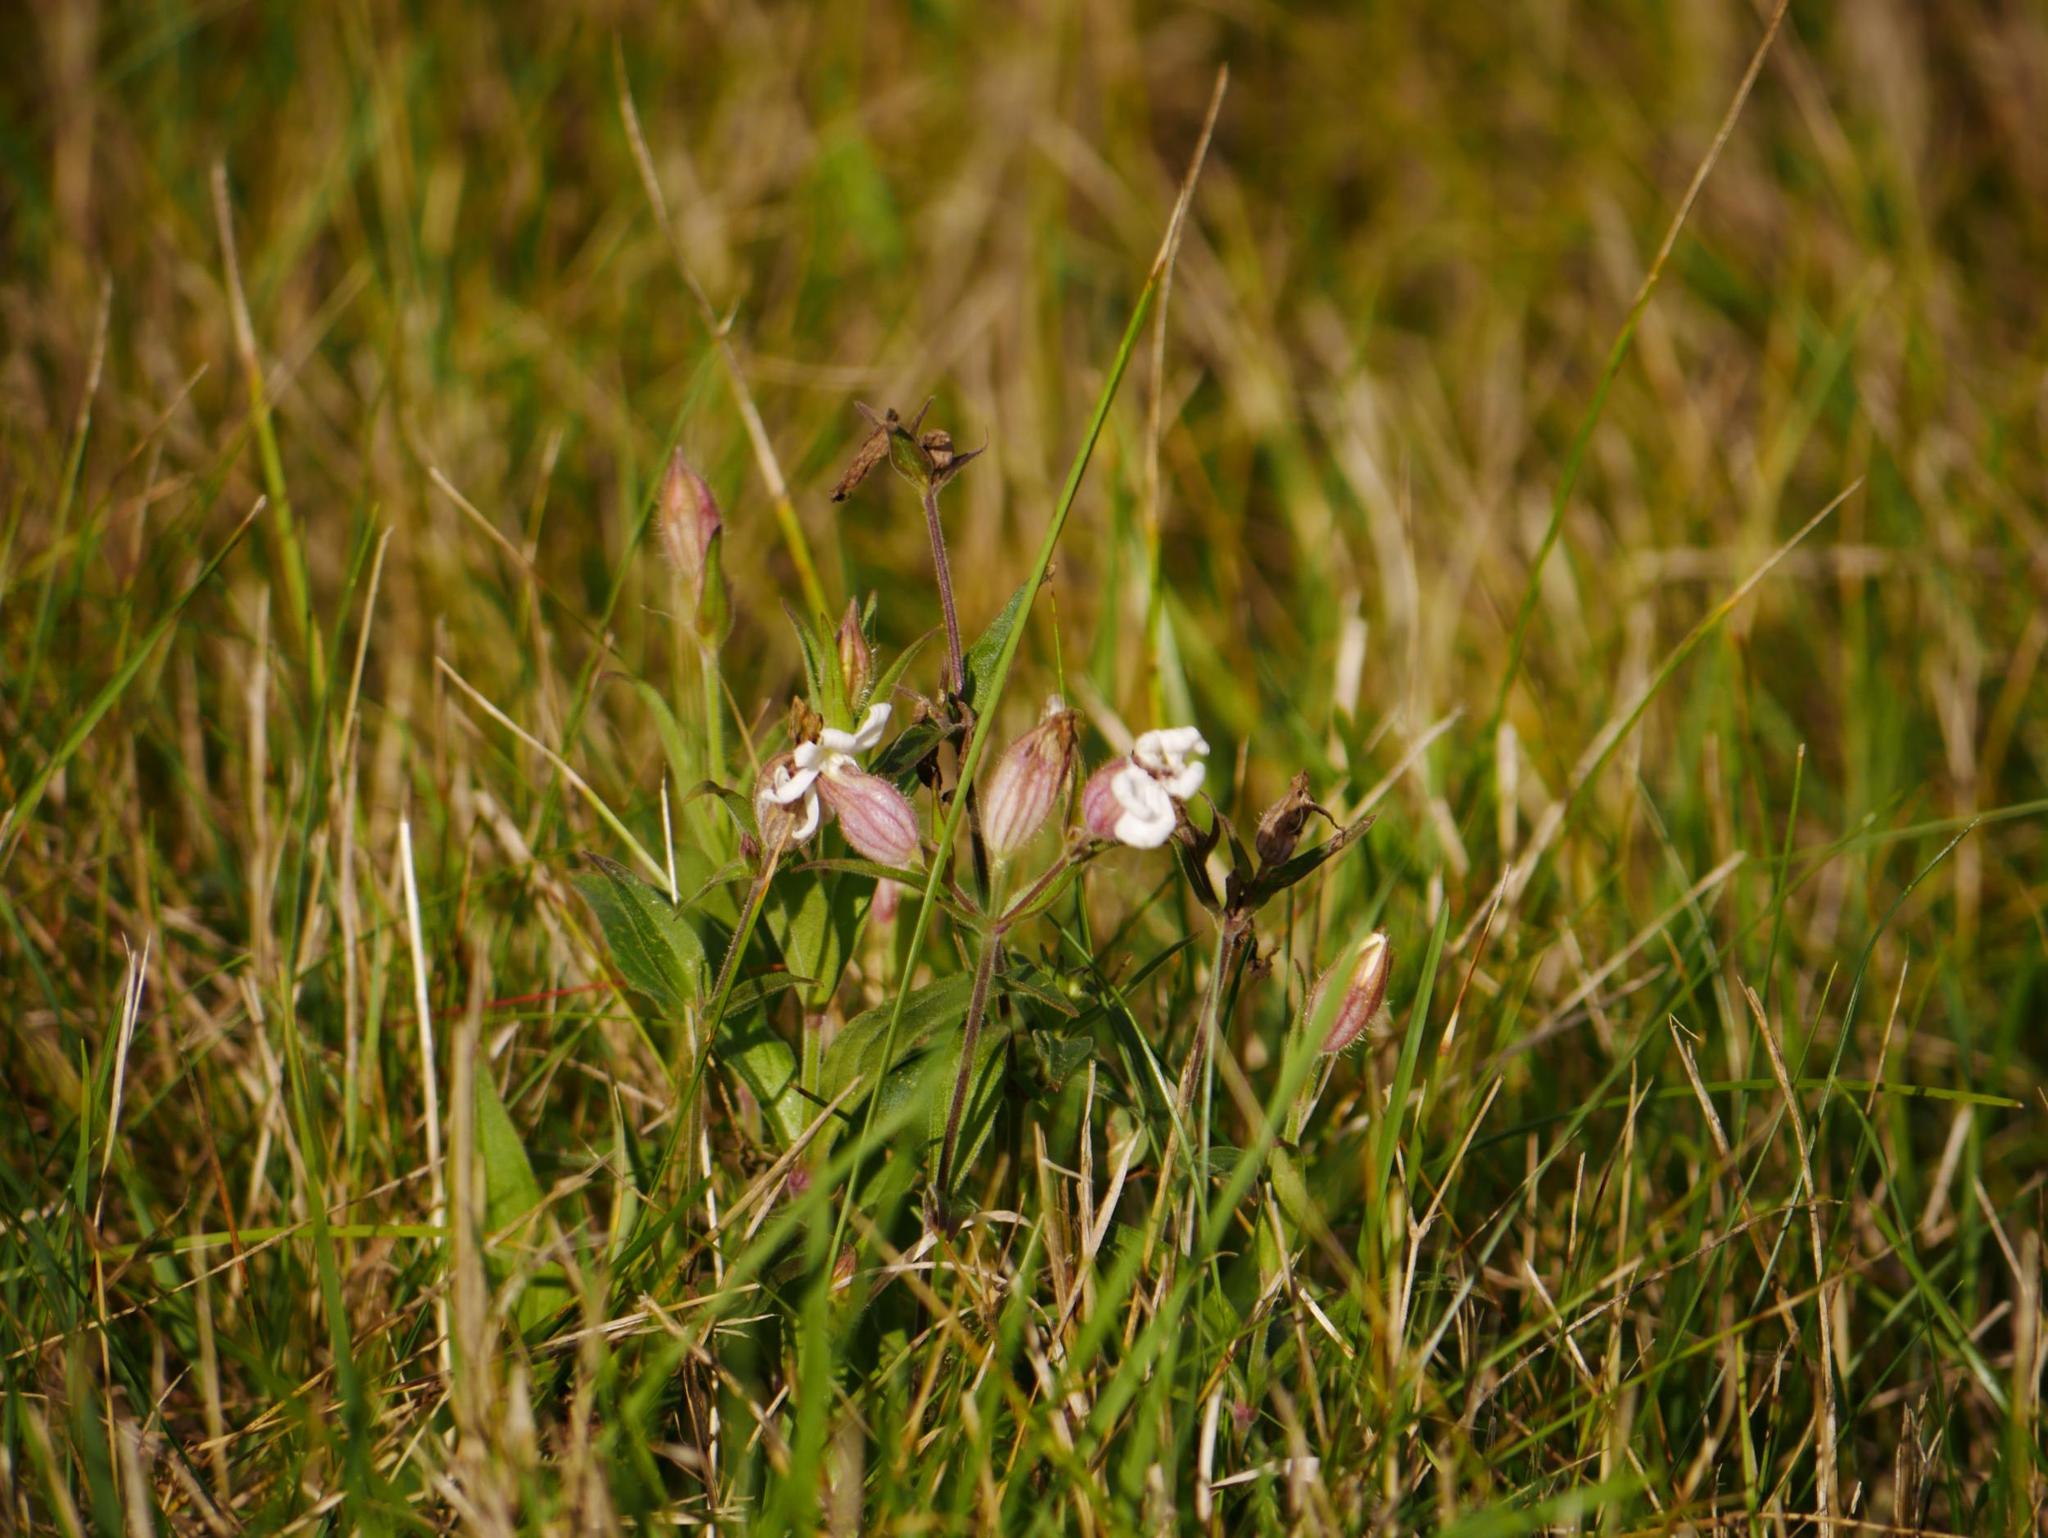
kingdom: Plantae
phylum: Tracheophyta
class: Magnoliopsida
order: Caryophyllales
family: Caryophyllaceae
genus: Silene
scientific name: Silene latifolia
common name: White campion
